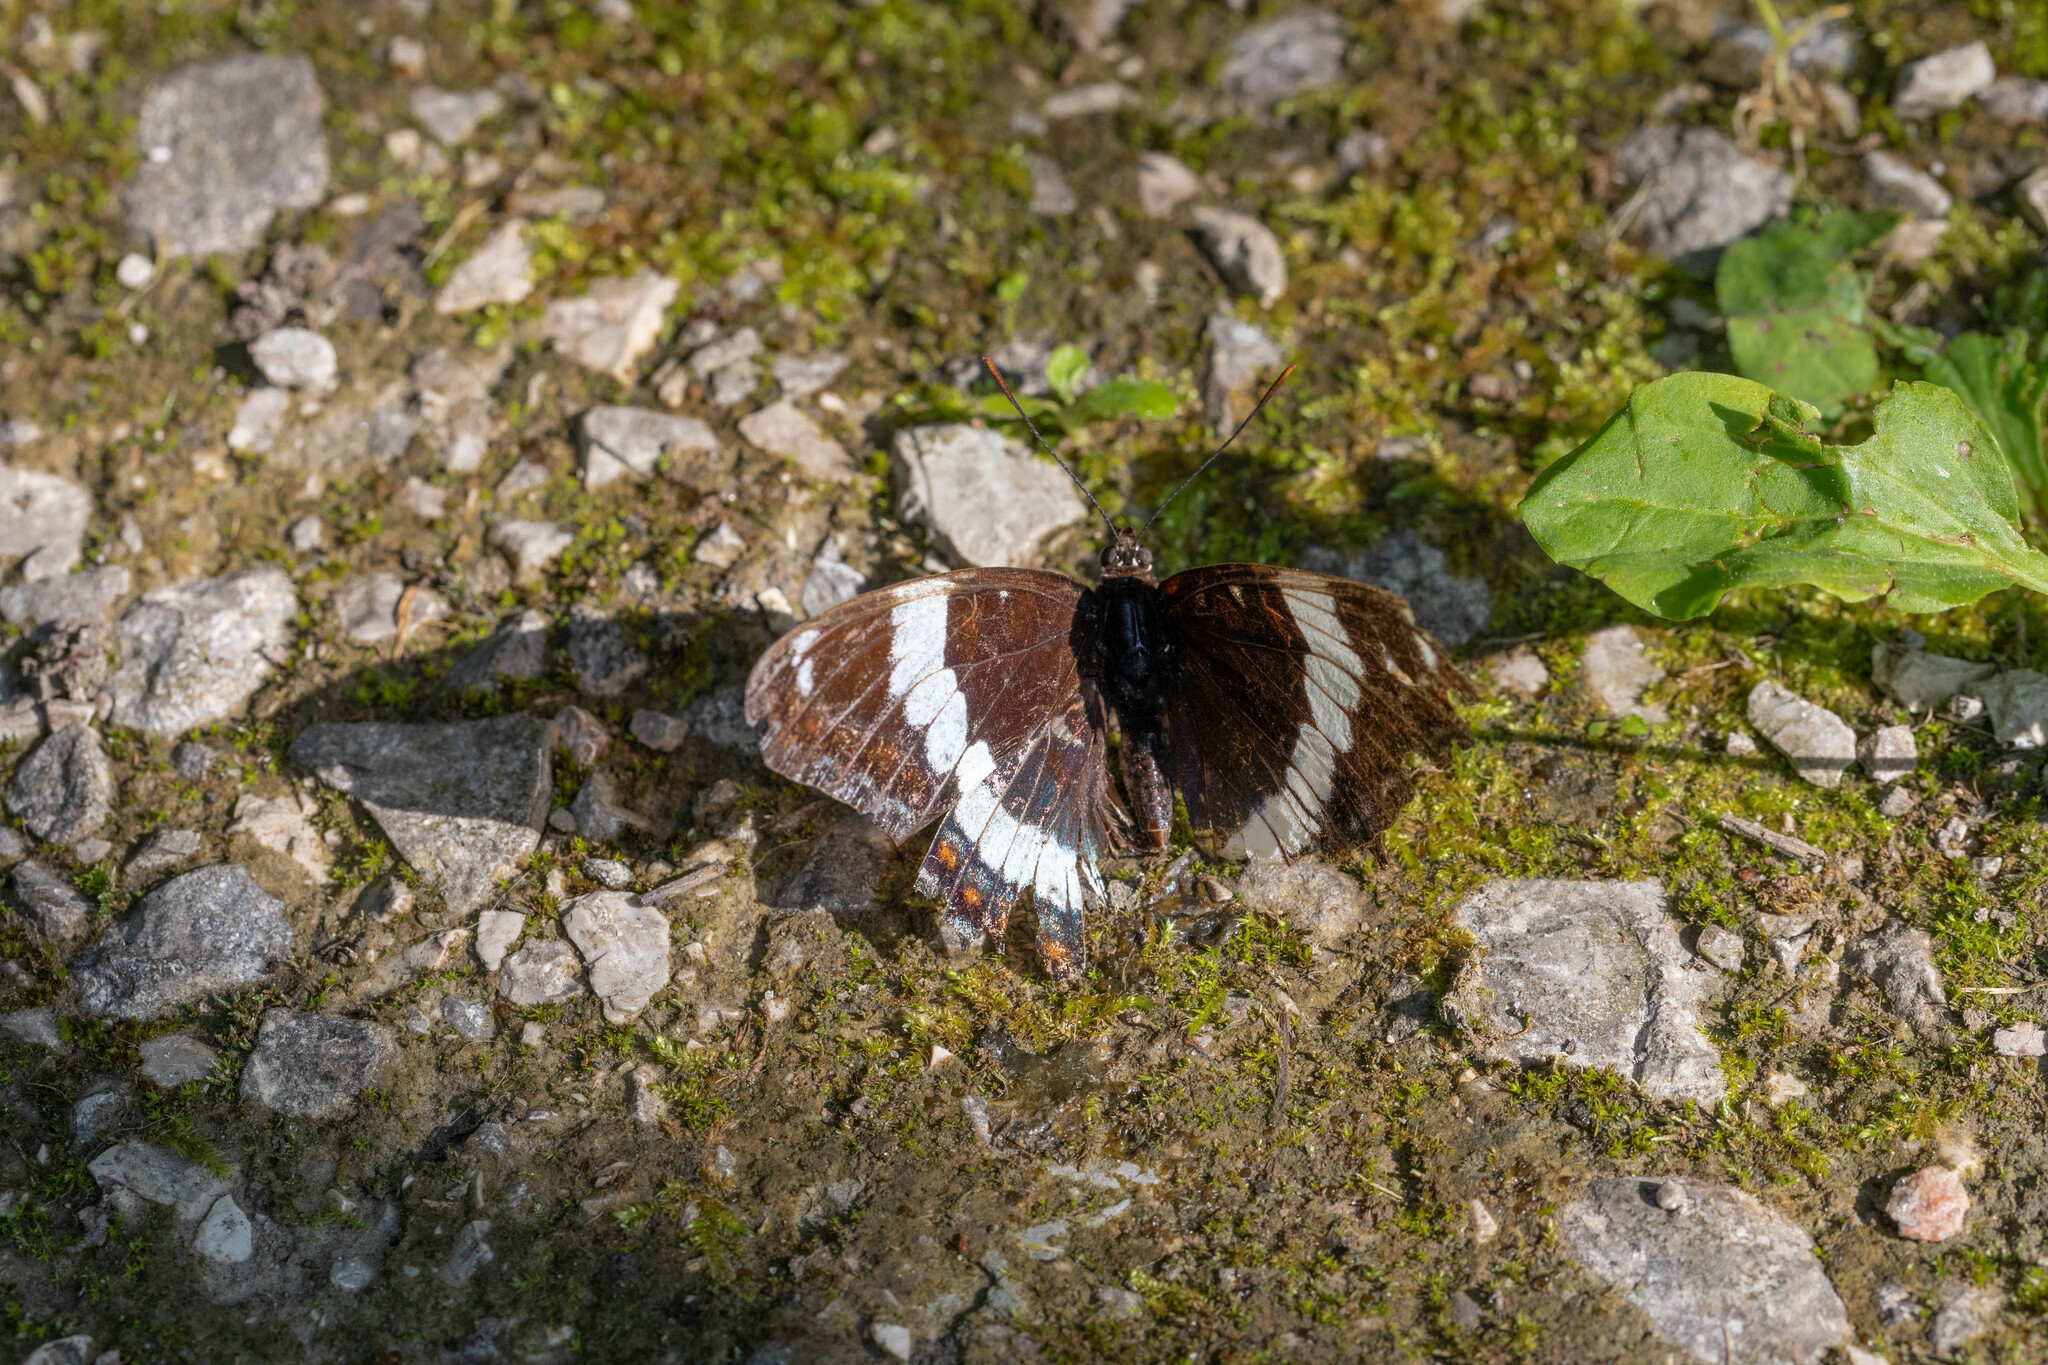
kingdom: Animalia
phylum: Arthropoda
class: Insecta
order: Lepidoptera
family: Nymphalidae
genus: Limenitis
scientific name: Limenitis arthemis
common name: Red-spotted admiral
